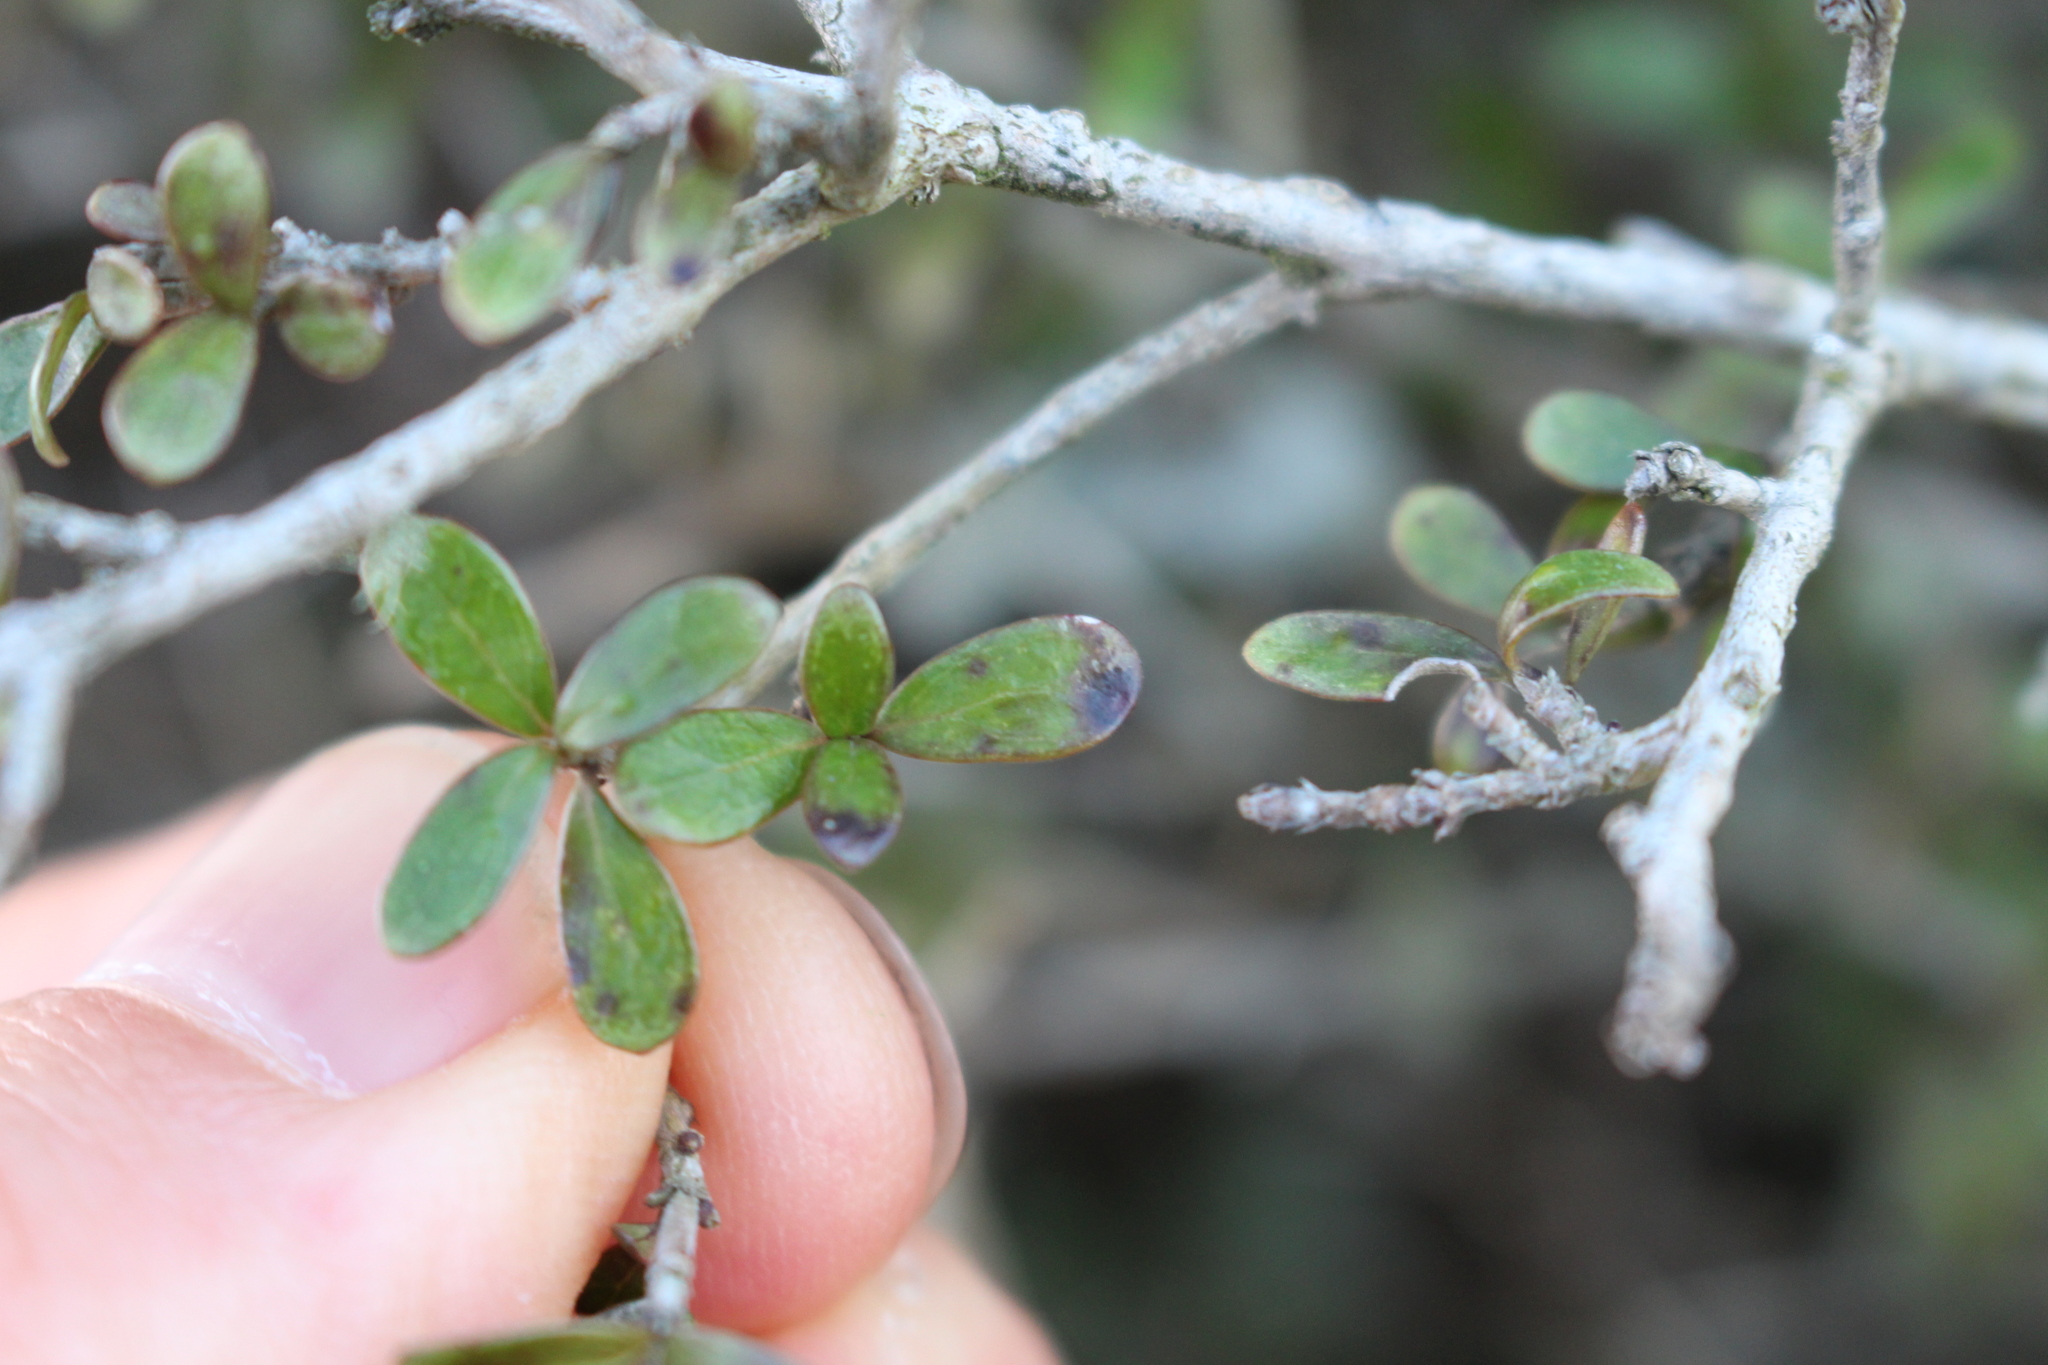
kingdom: Plantae
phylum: Tracheophyta
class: Magnoliopsida
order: Gentianales
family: Rubiaceae
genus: Coprosma
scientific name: Coprosma dumosa
